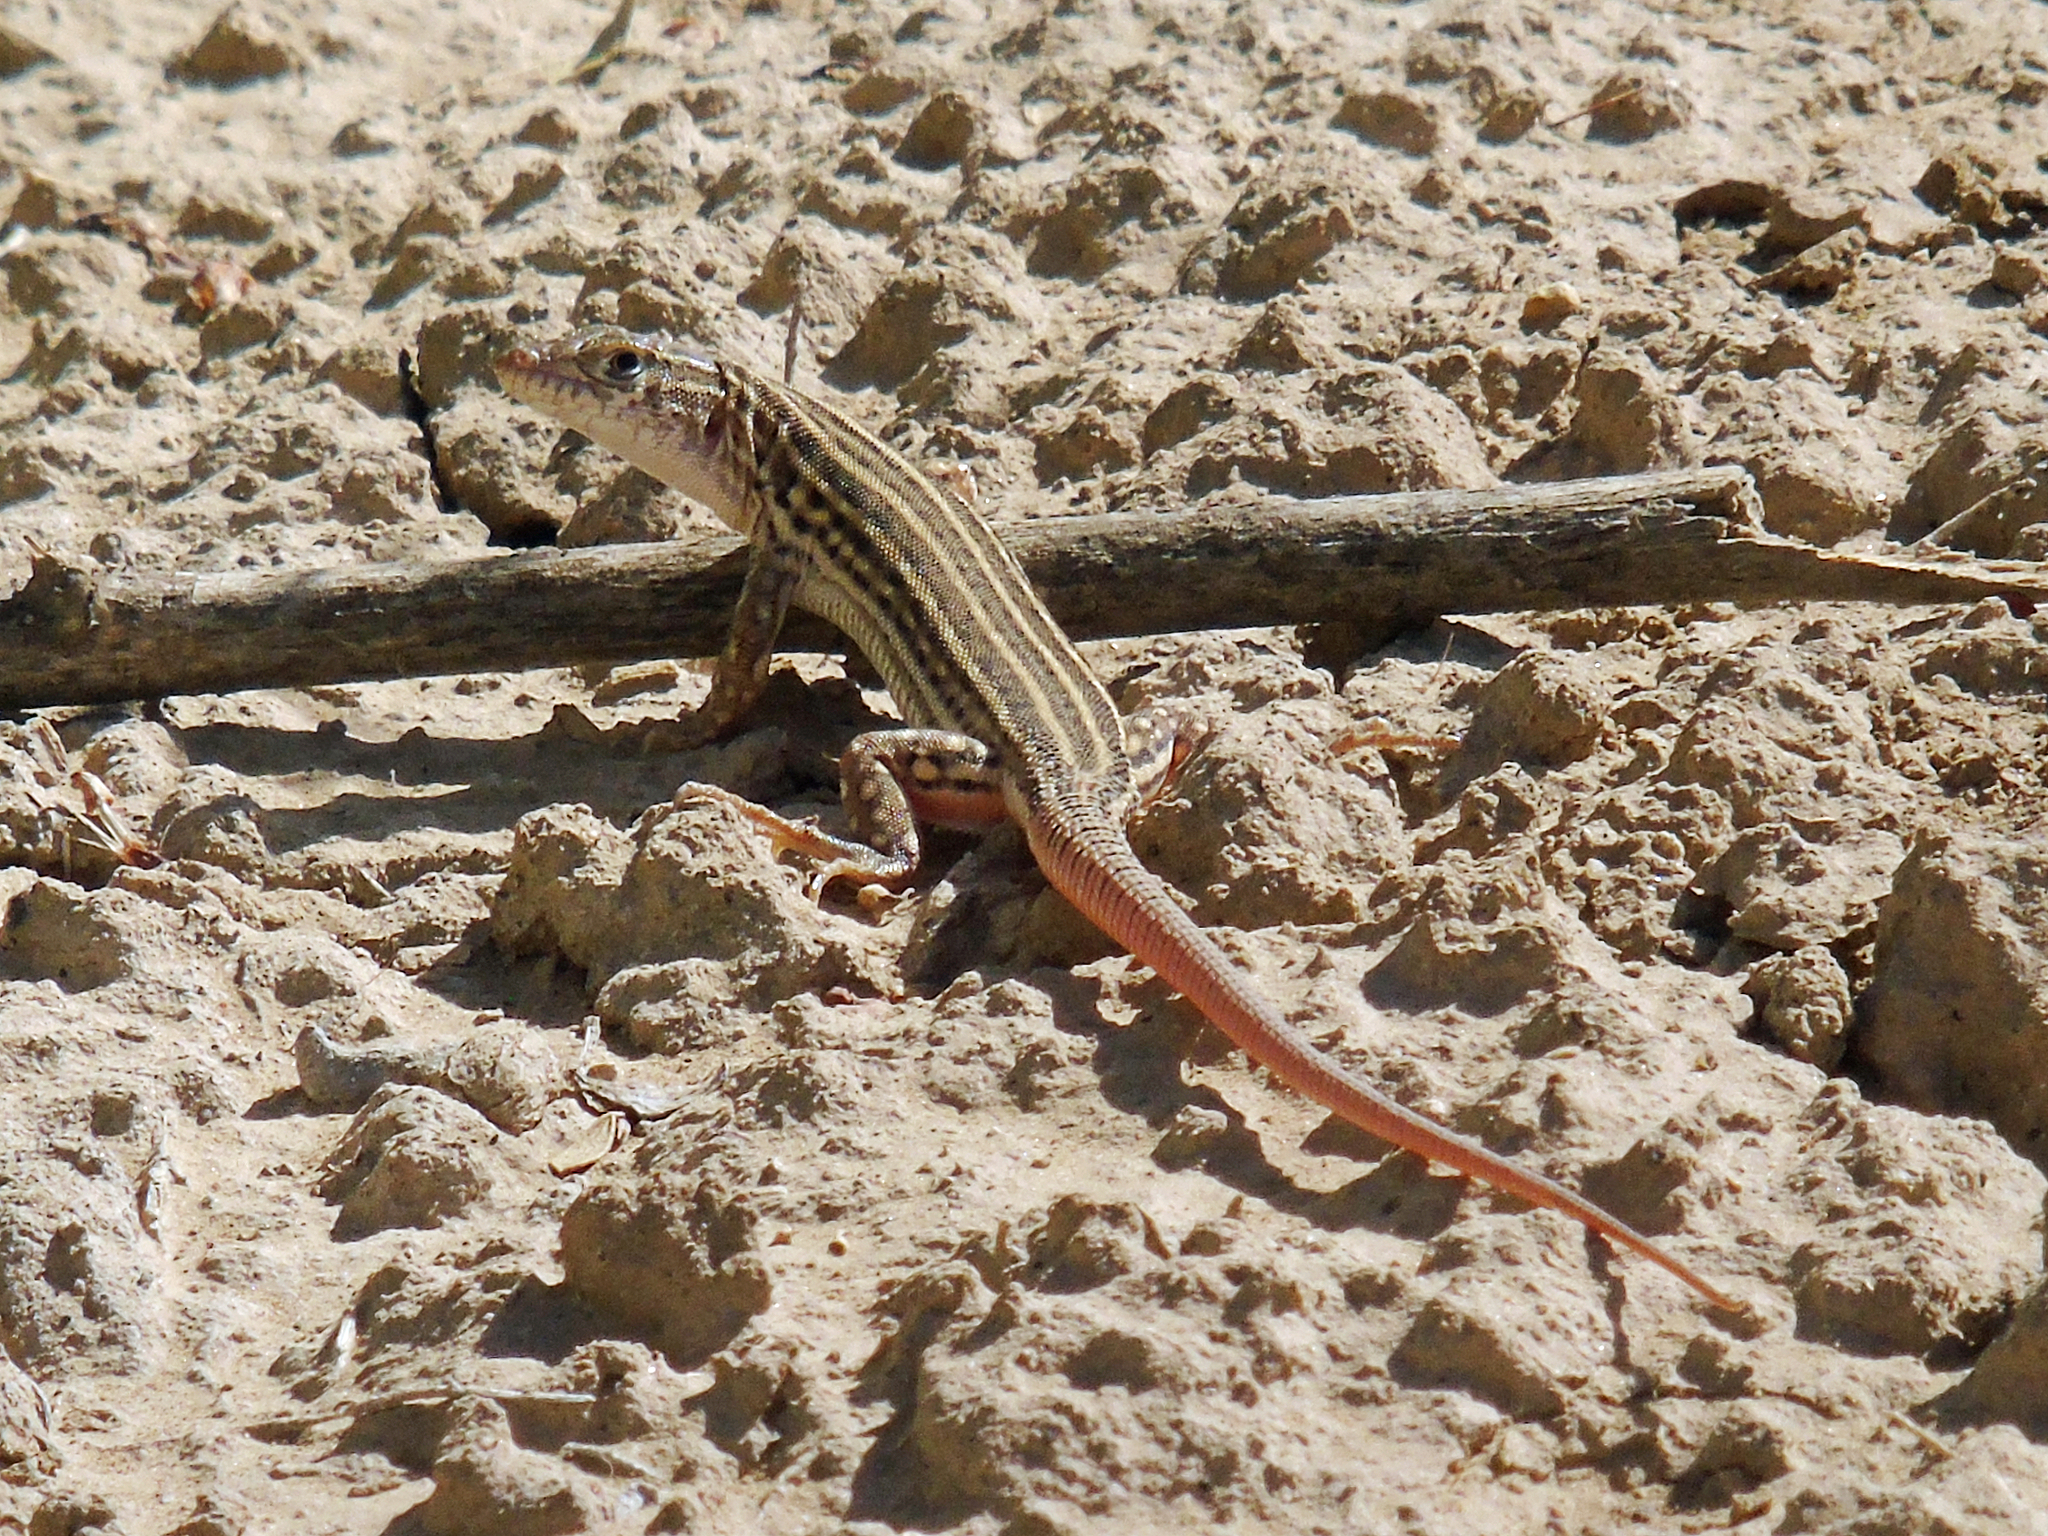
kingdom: Animalia
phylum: Chordata
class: Squamata
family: Lacertidae
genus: Eremias
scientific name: Eremias velox
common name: Central asian racerunner
